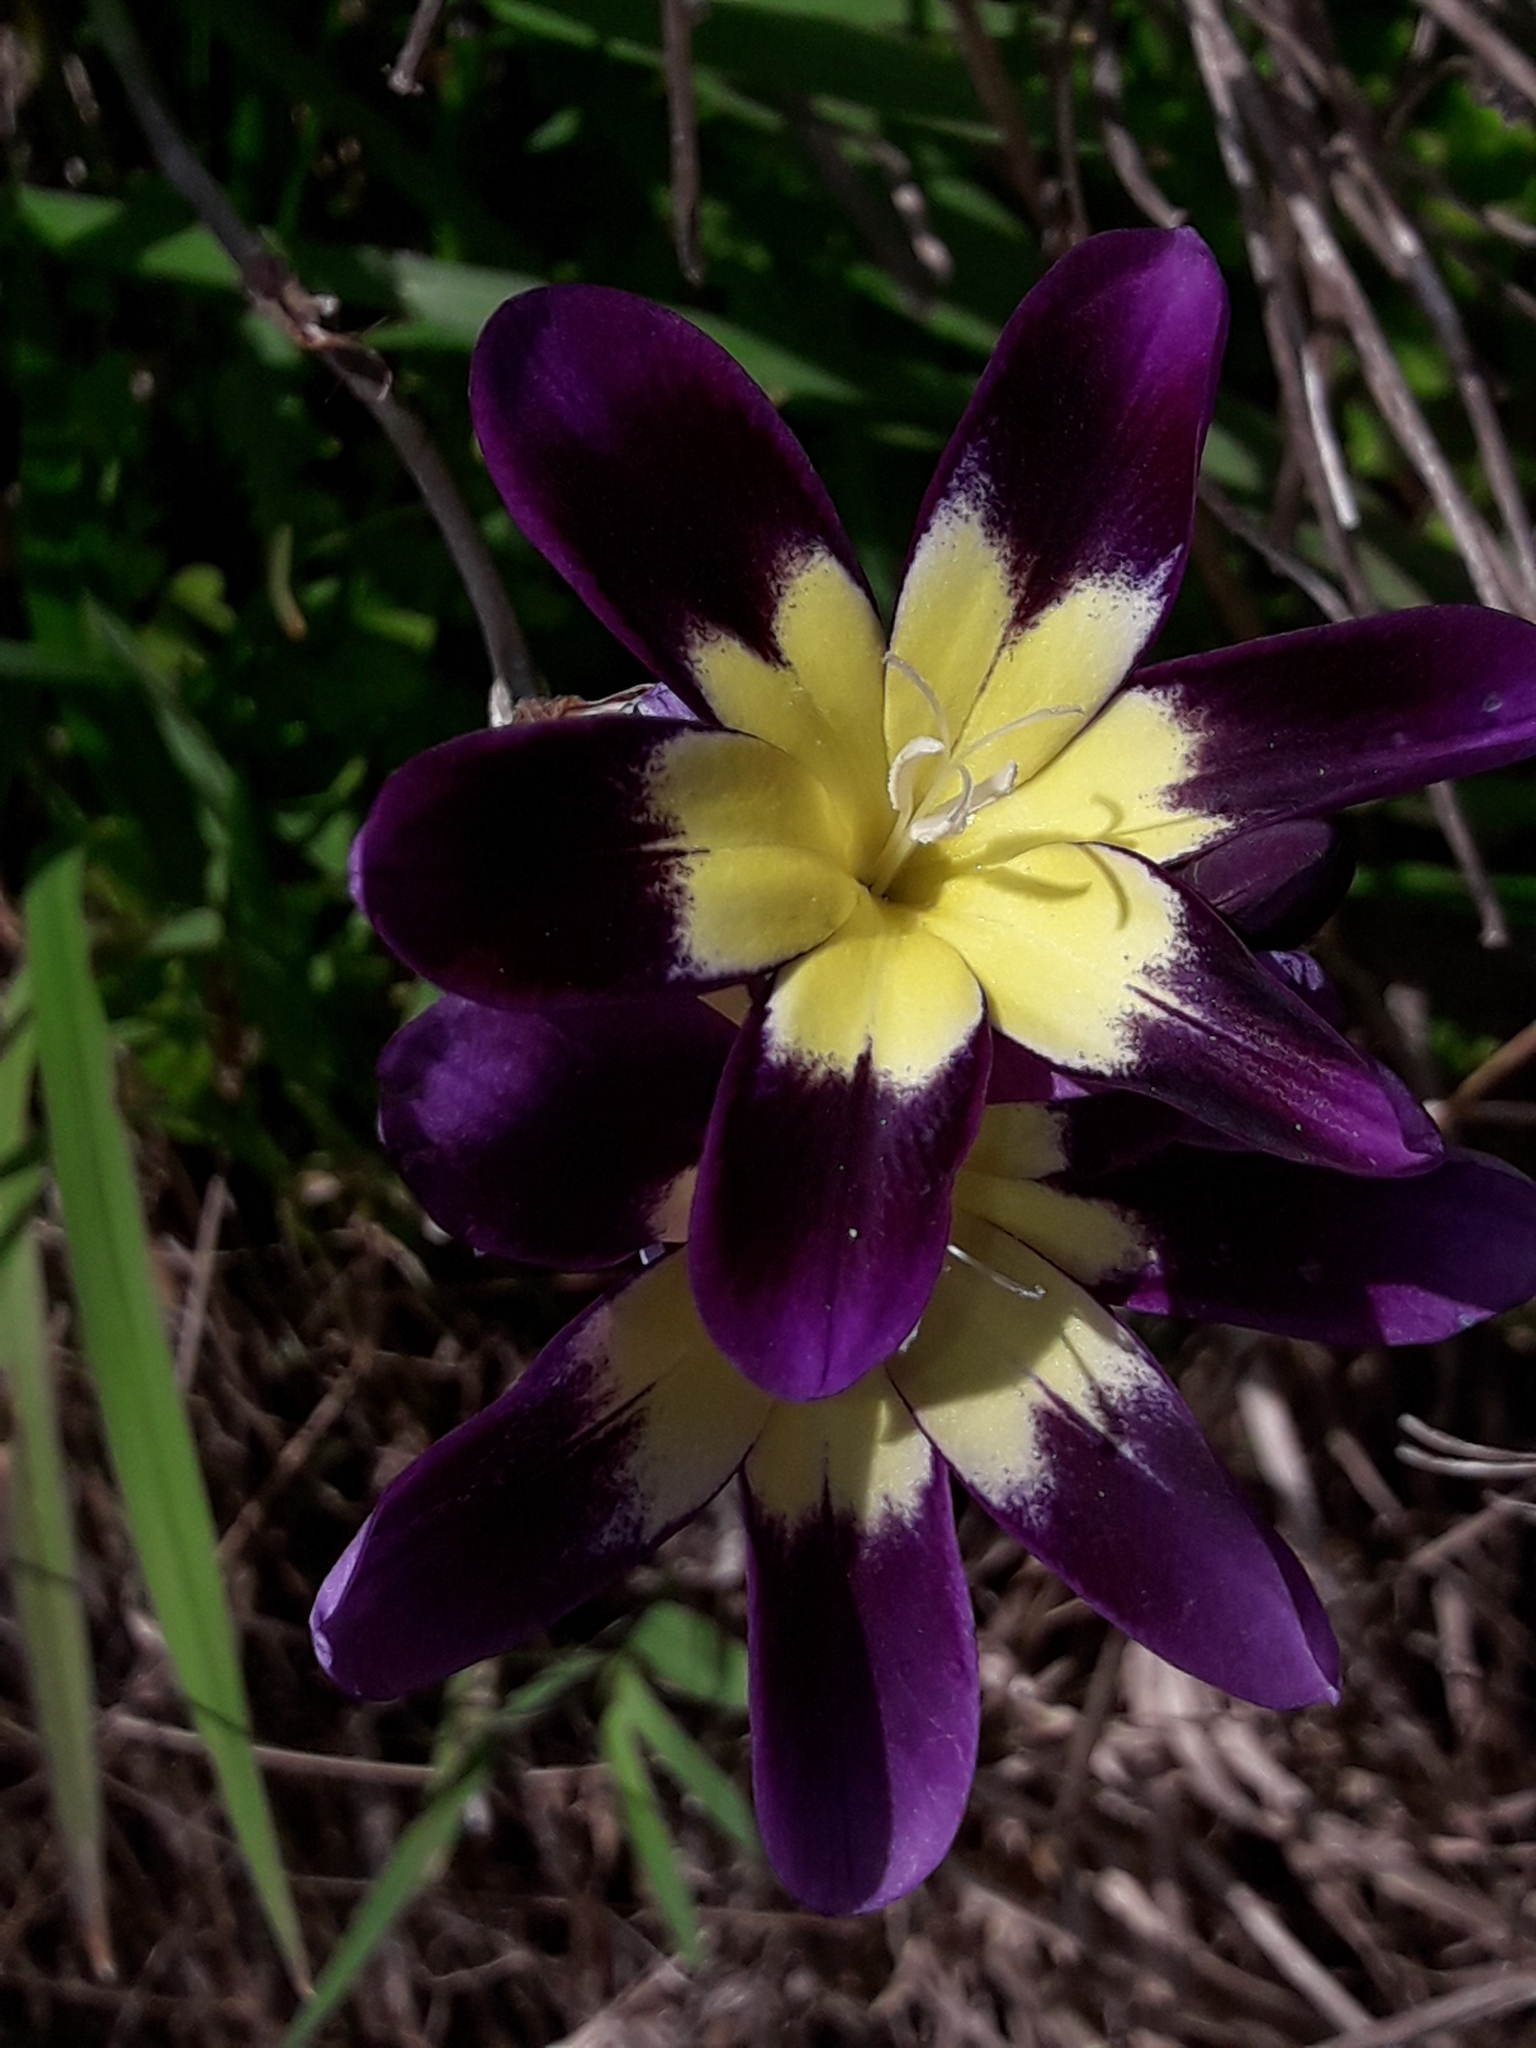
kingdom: Plantae
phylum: Tracheophyta
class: Liliopsida
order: Asparagales
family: Iridaceae
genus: Sparaxis
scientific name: Sparaxis tricolor
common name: Wandflower
